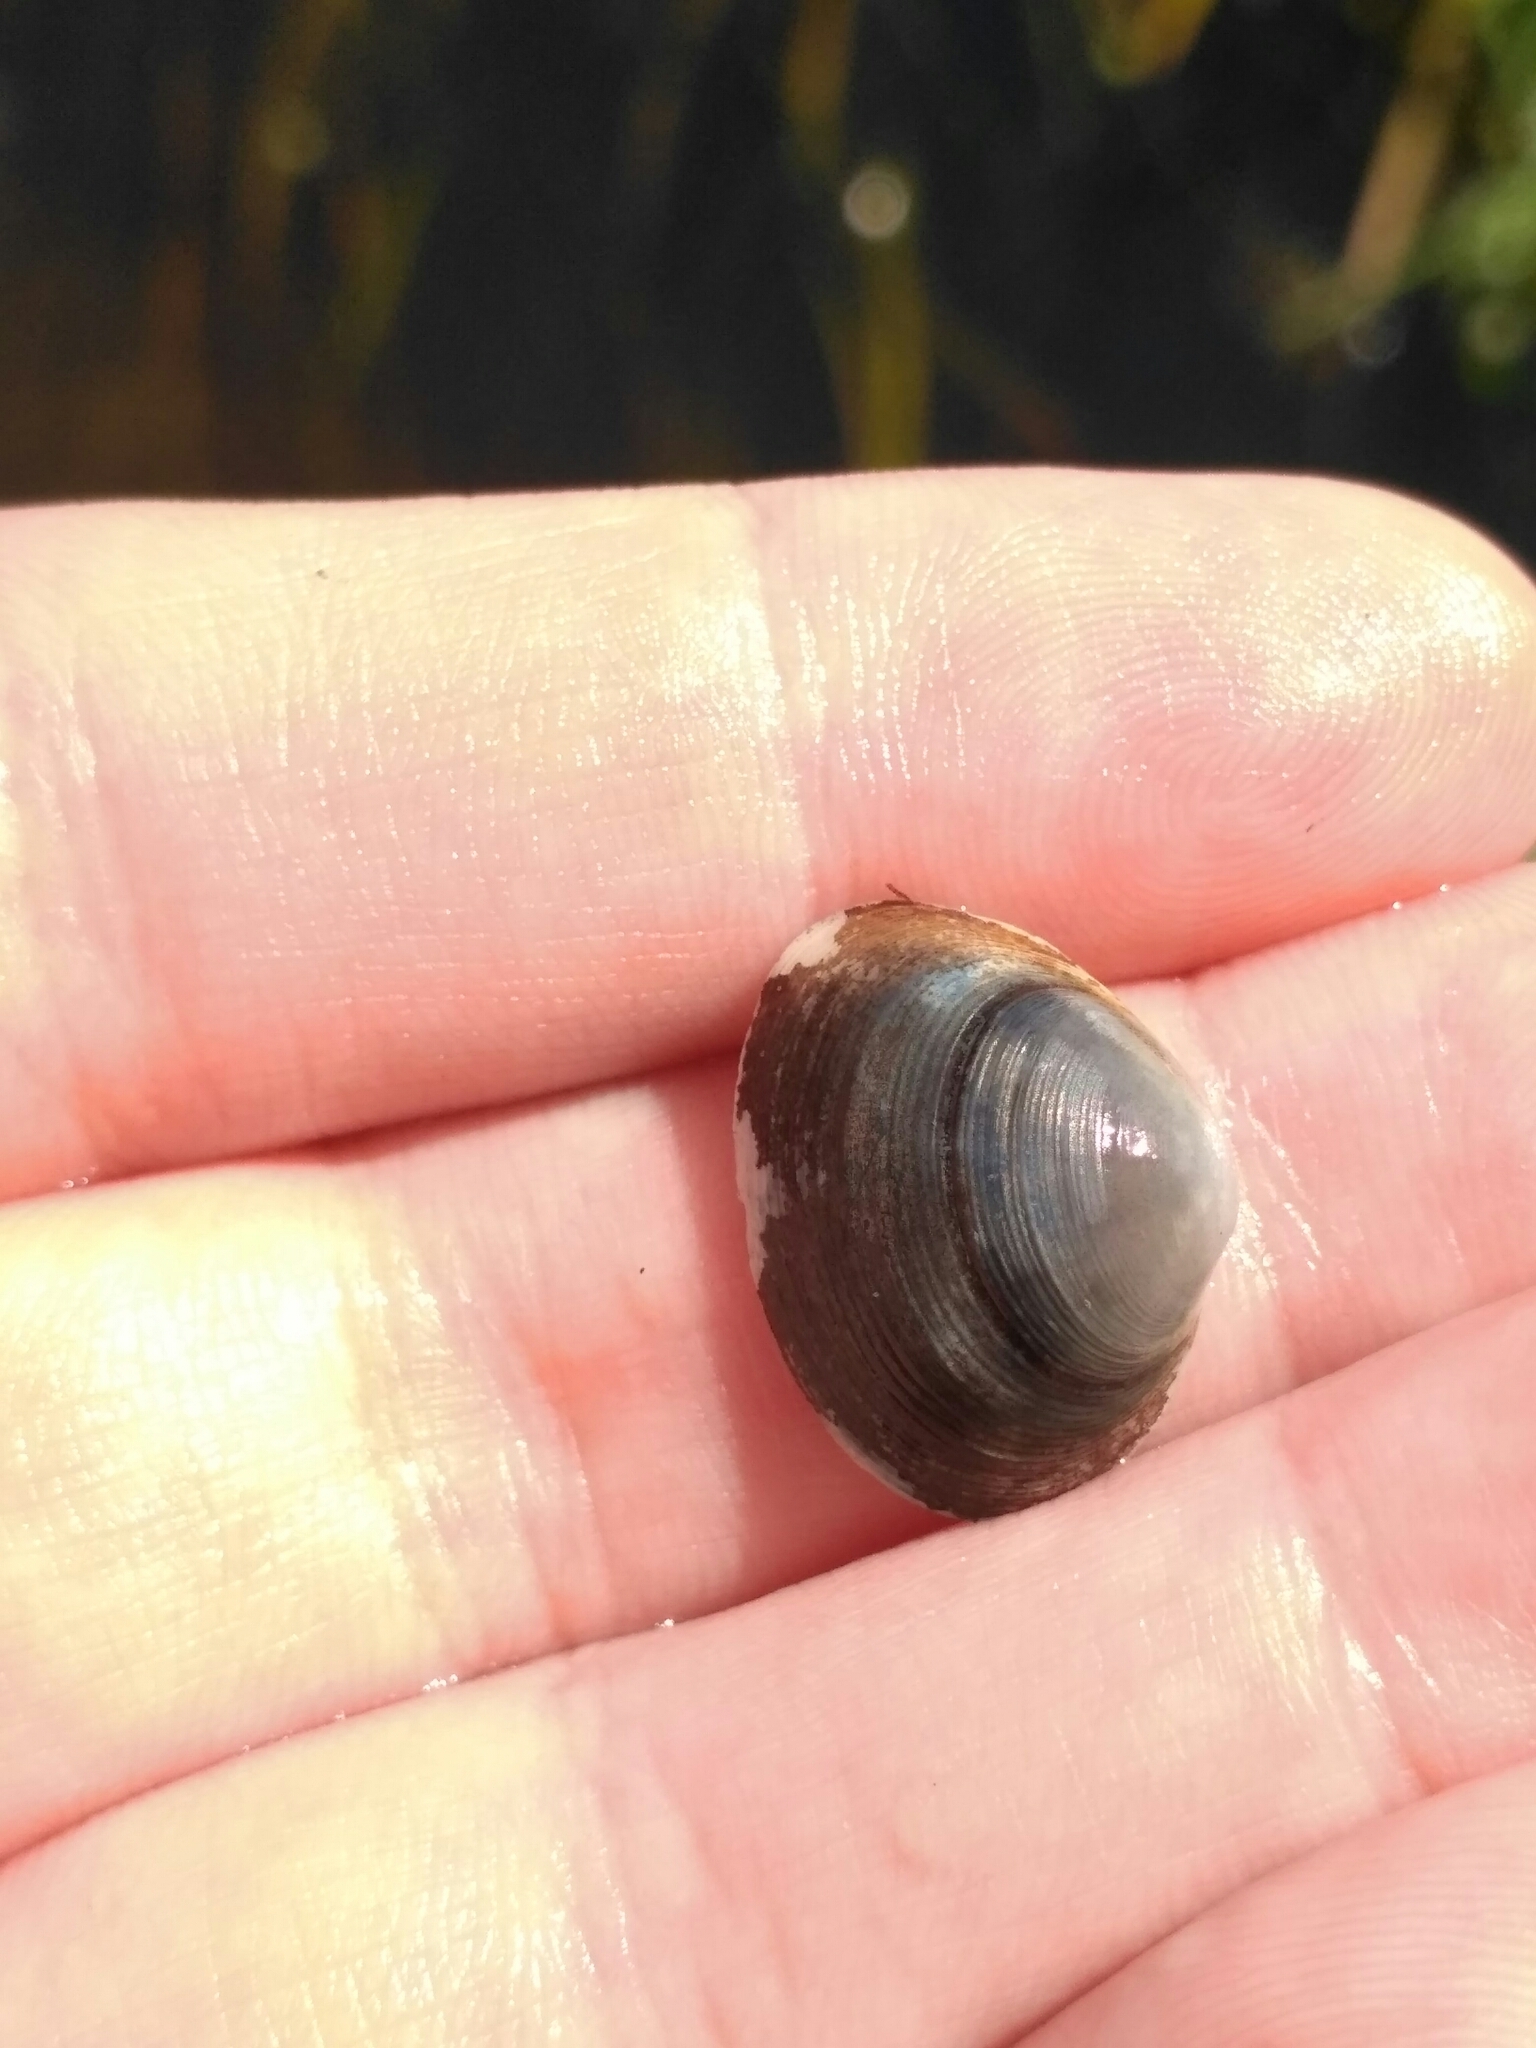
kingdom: Animalia
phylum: Mollusca
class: Bivalvia
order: Sphaeriida
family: Sphaeriidae
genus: Sphaerium
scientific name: Sphaerium rivicola
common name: Nut orb mussel
